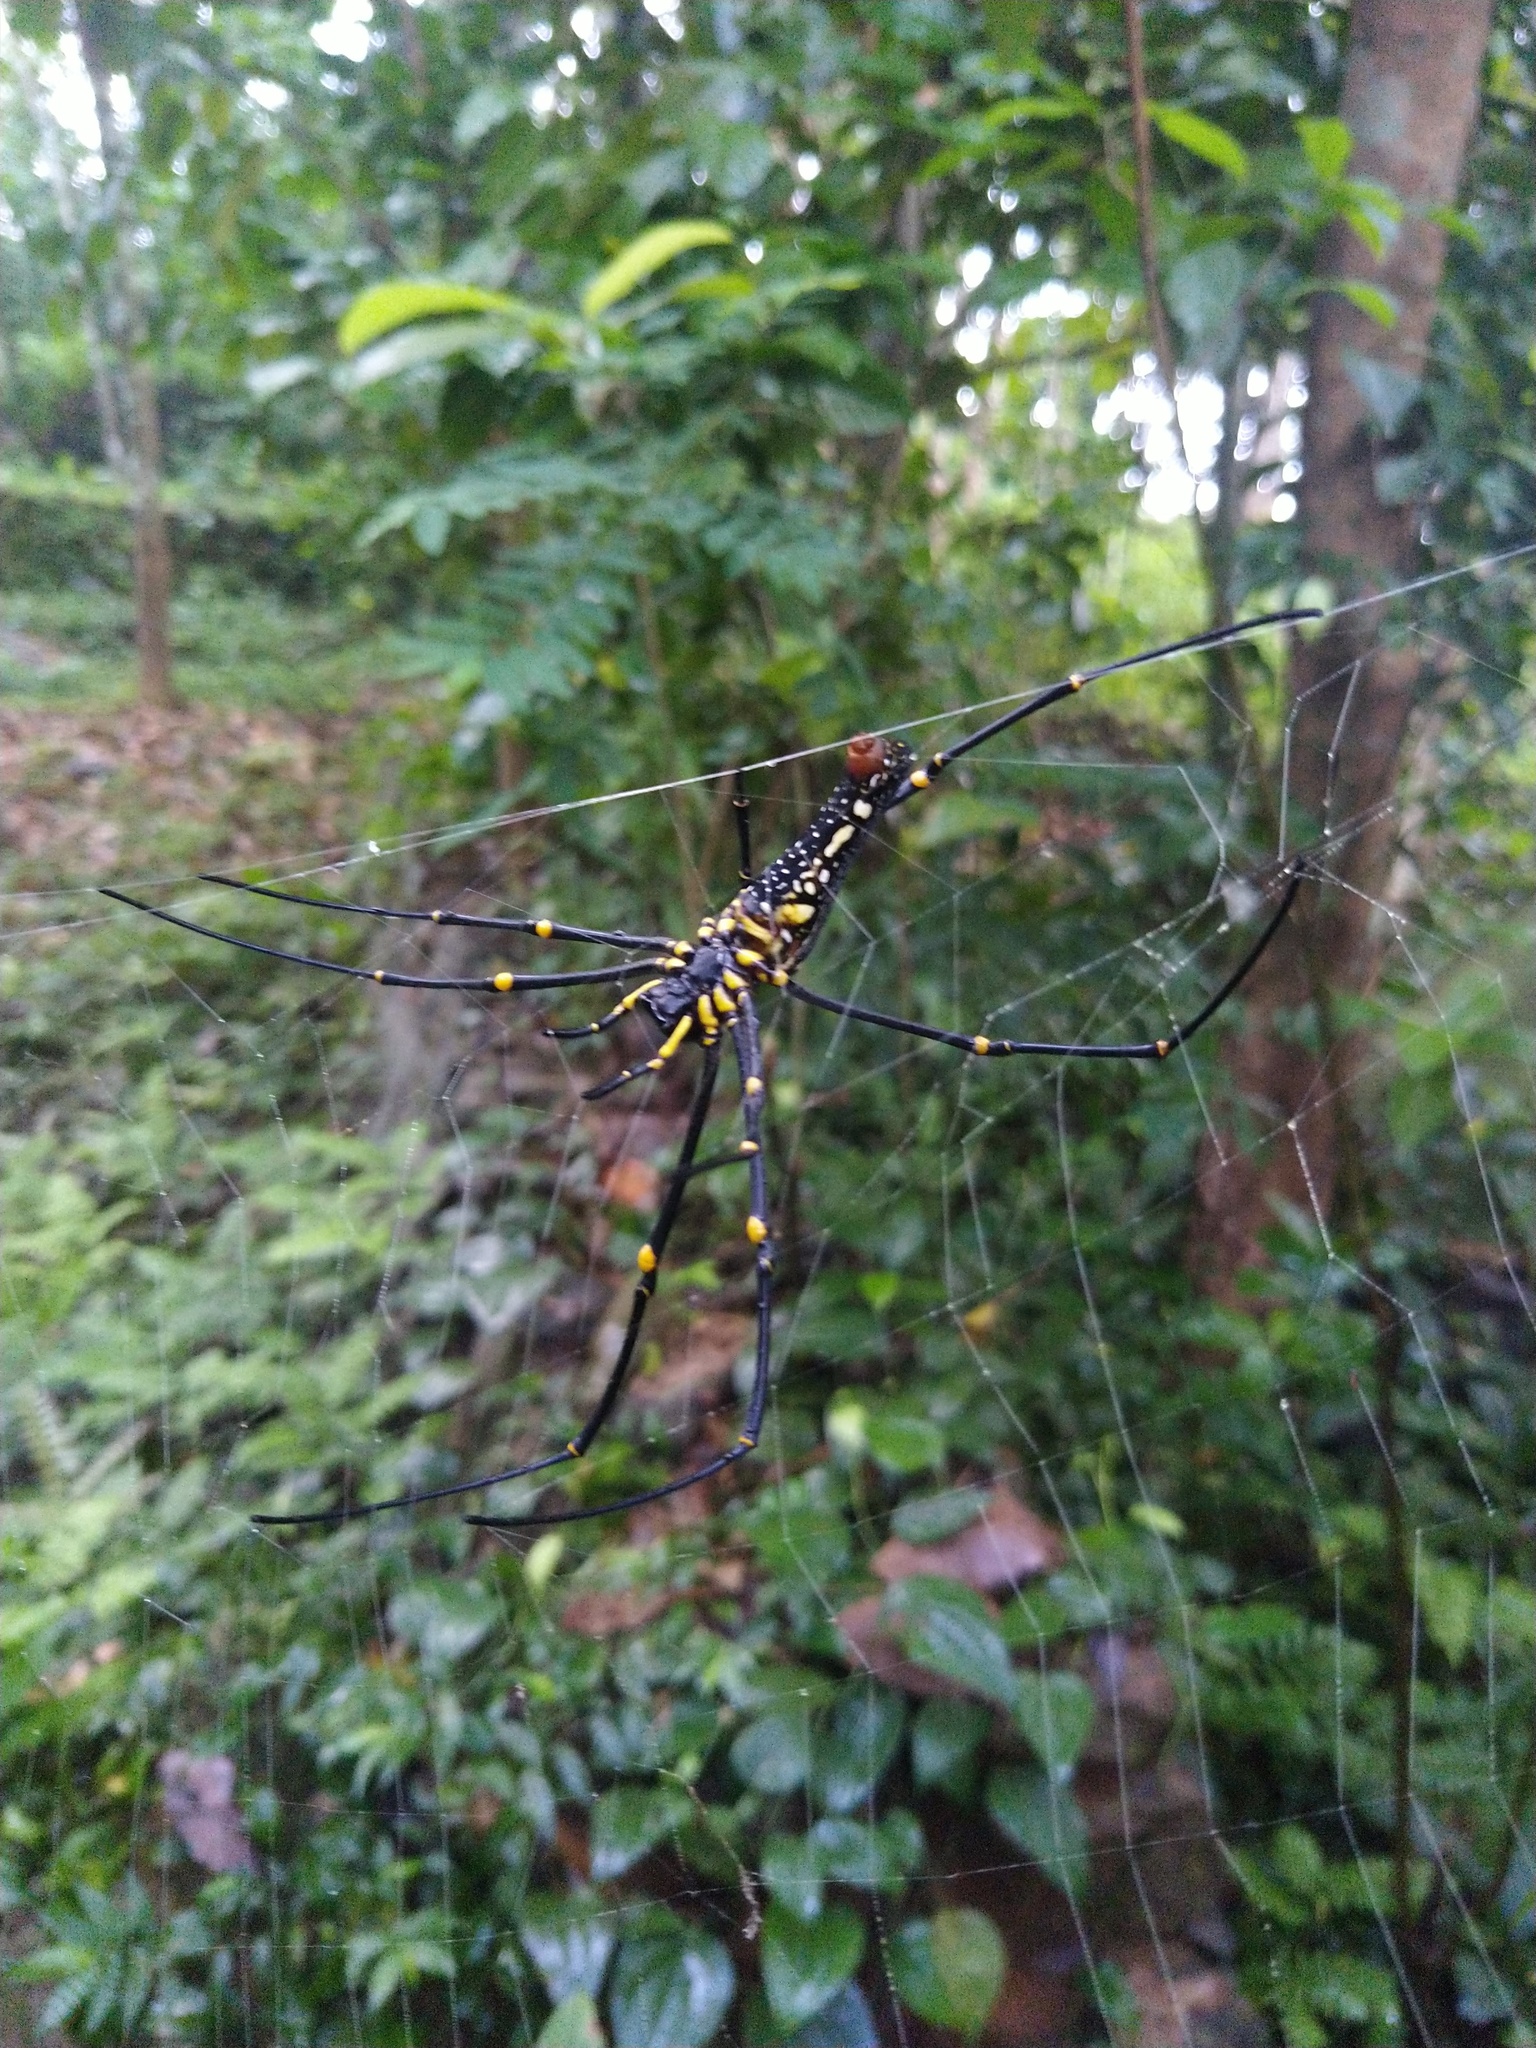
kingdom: Animalia
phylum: Arthropoda
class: Arachnida
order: Araneae
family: Araneidae
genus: Nephila
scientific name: Nephila pilipes
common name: Giant golden orb weaver
